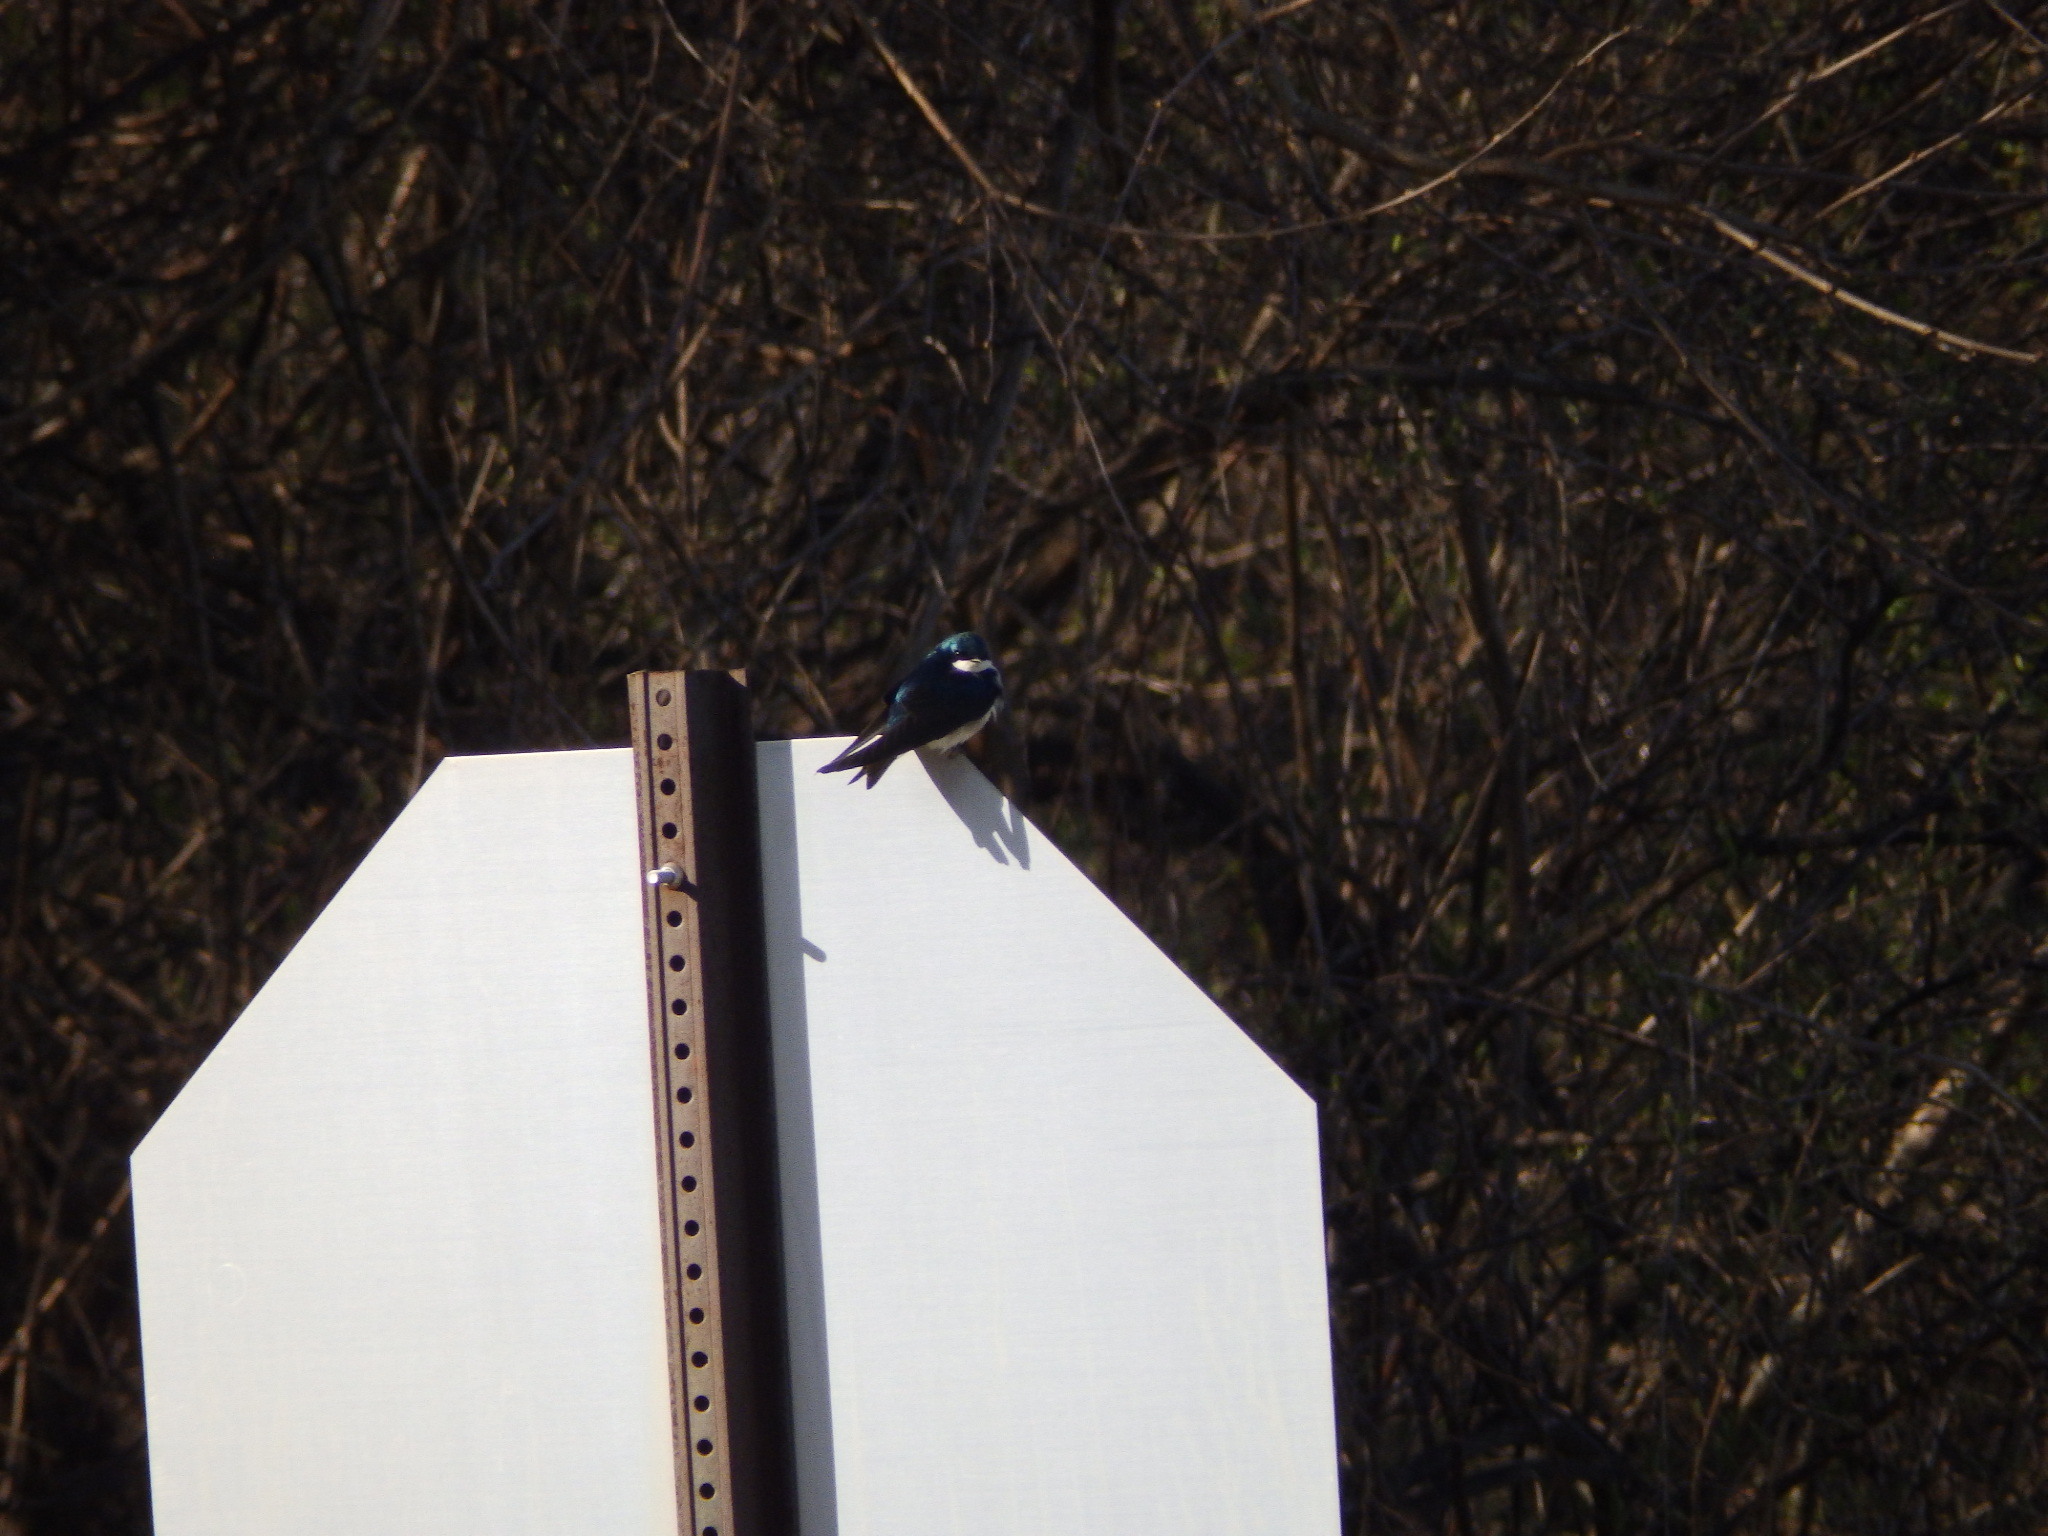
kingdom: Animalia
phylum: Chordata
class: Aves
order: Passeriformes
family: Hirundinidae
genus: Tachycineta
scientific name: Tachycineta bicolor
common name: Tree swallow
